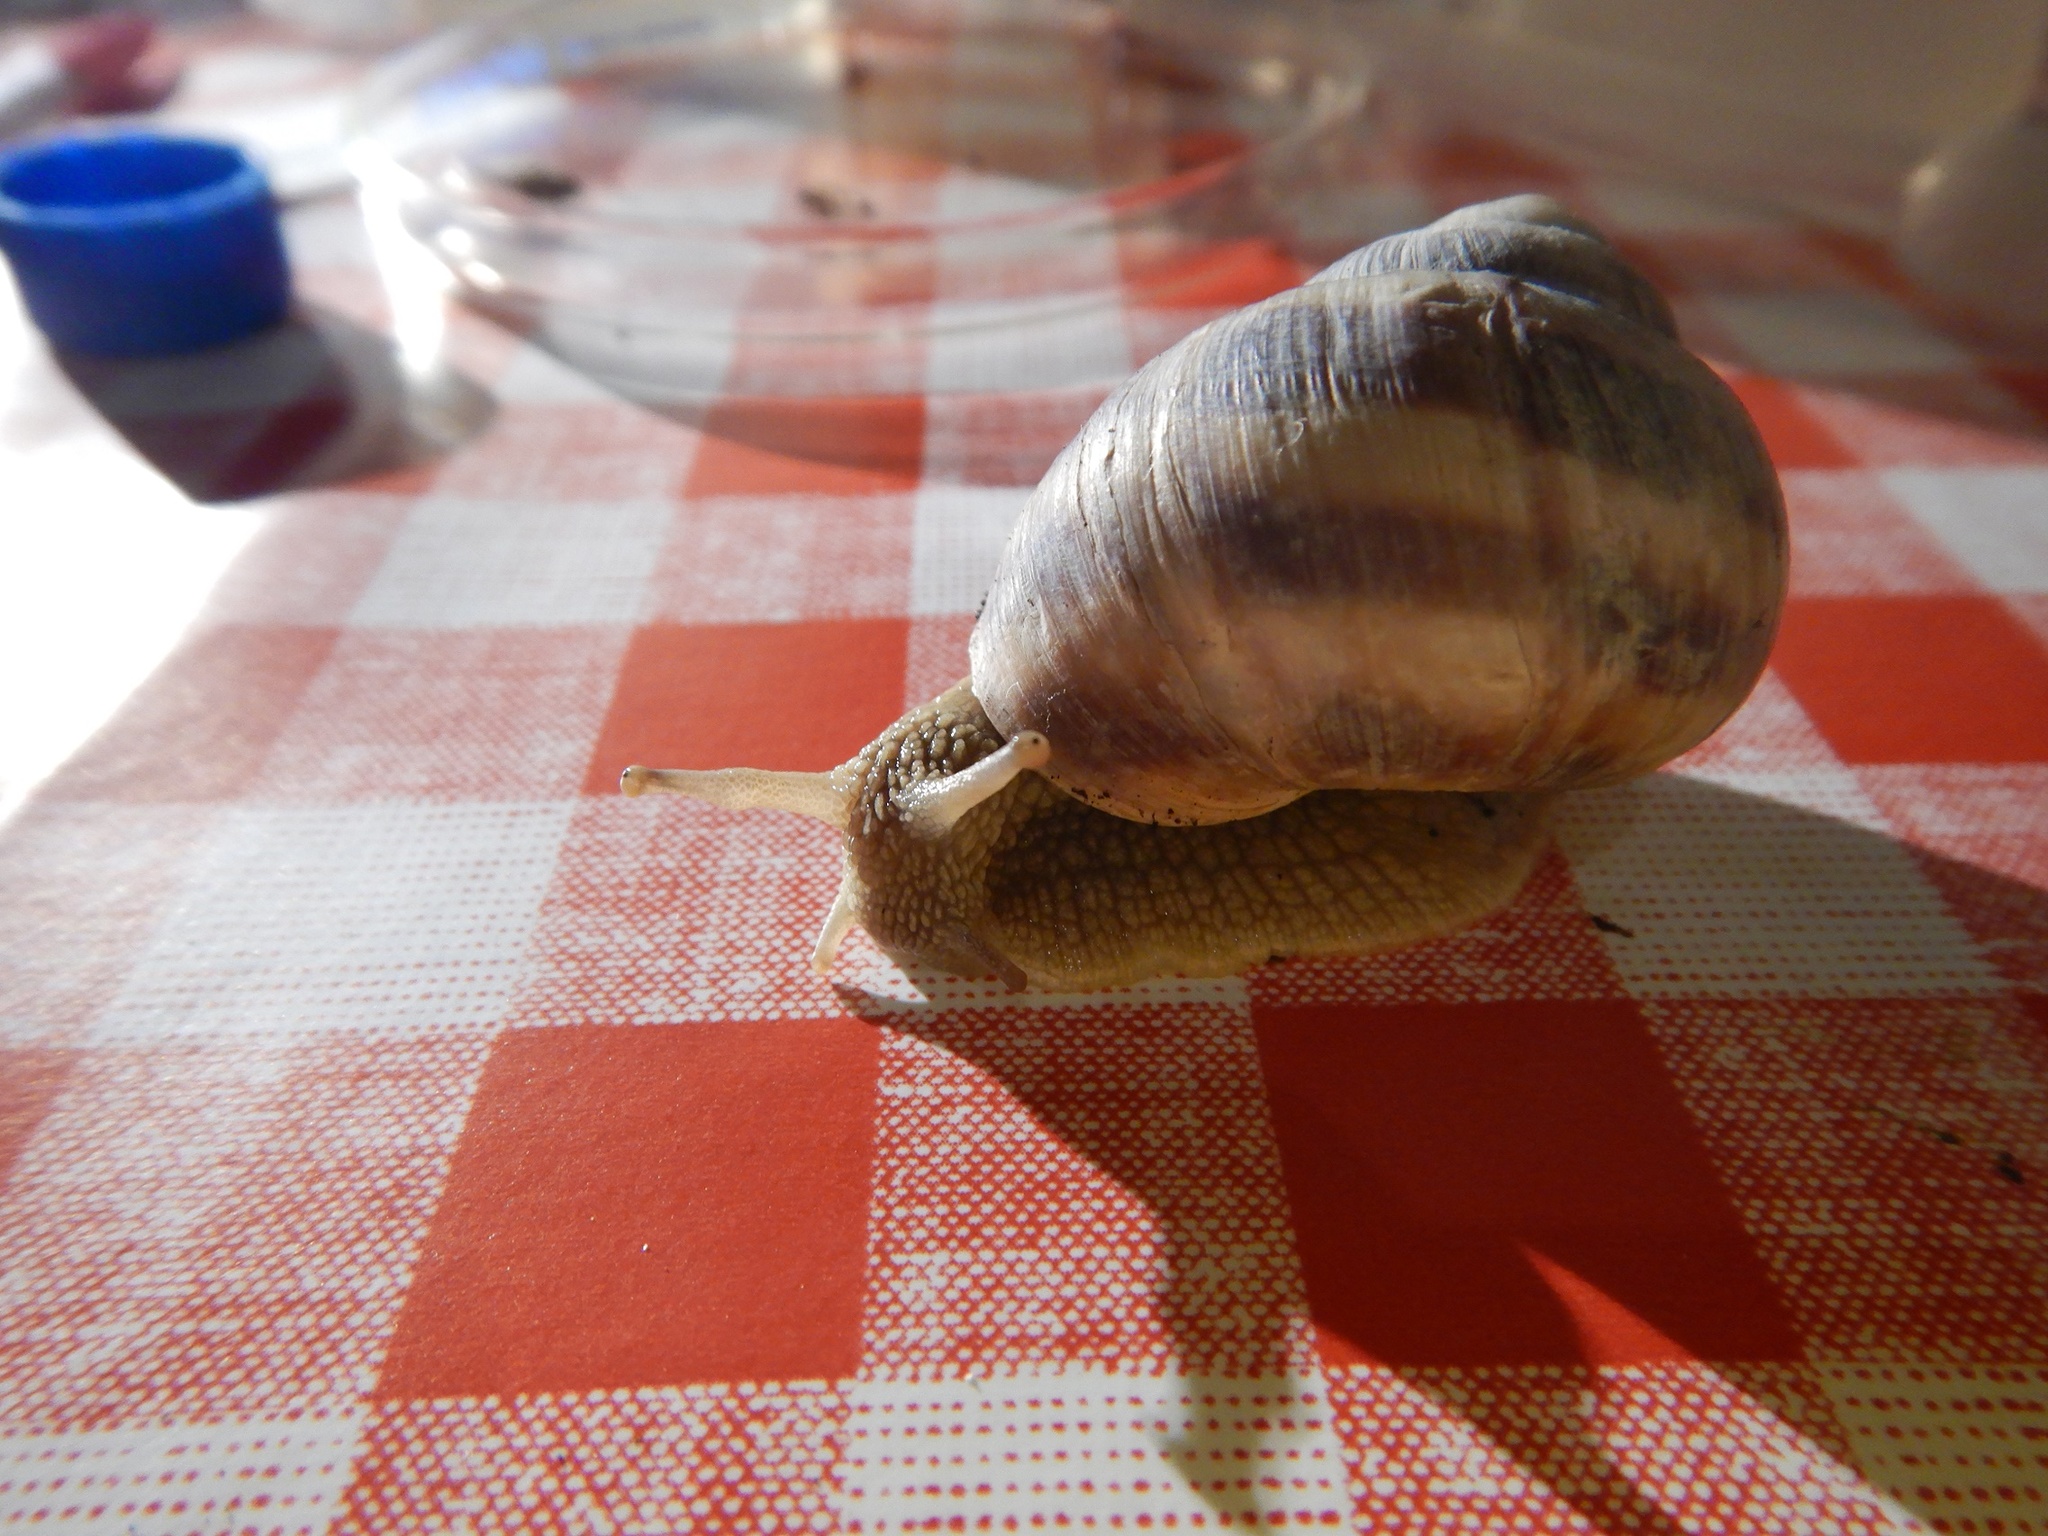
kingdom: Animalia
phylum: Mollusca
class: Gastropoda
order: Stylommatophora
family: Helicidae
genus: Helix
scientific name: Helix dormitoris
